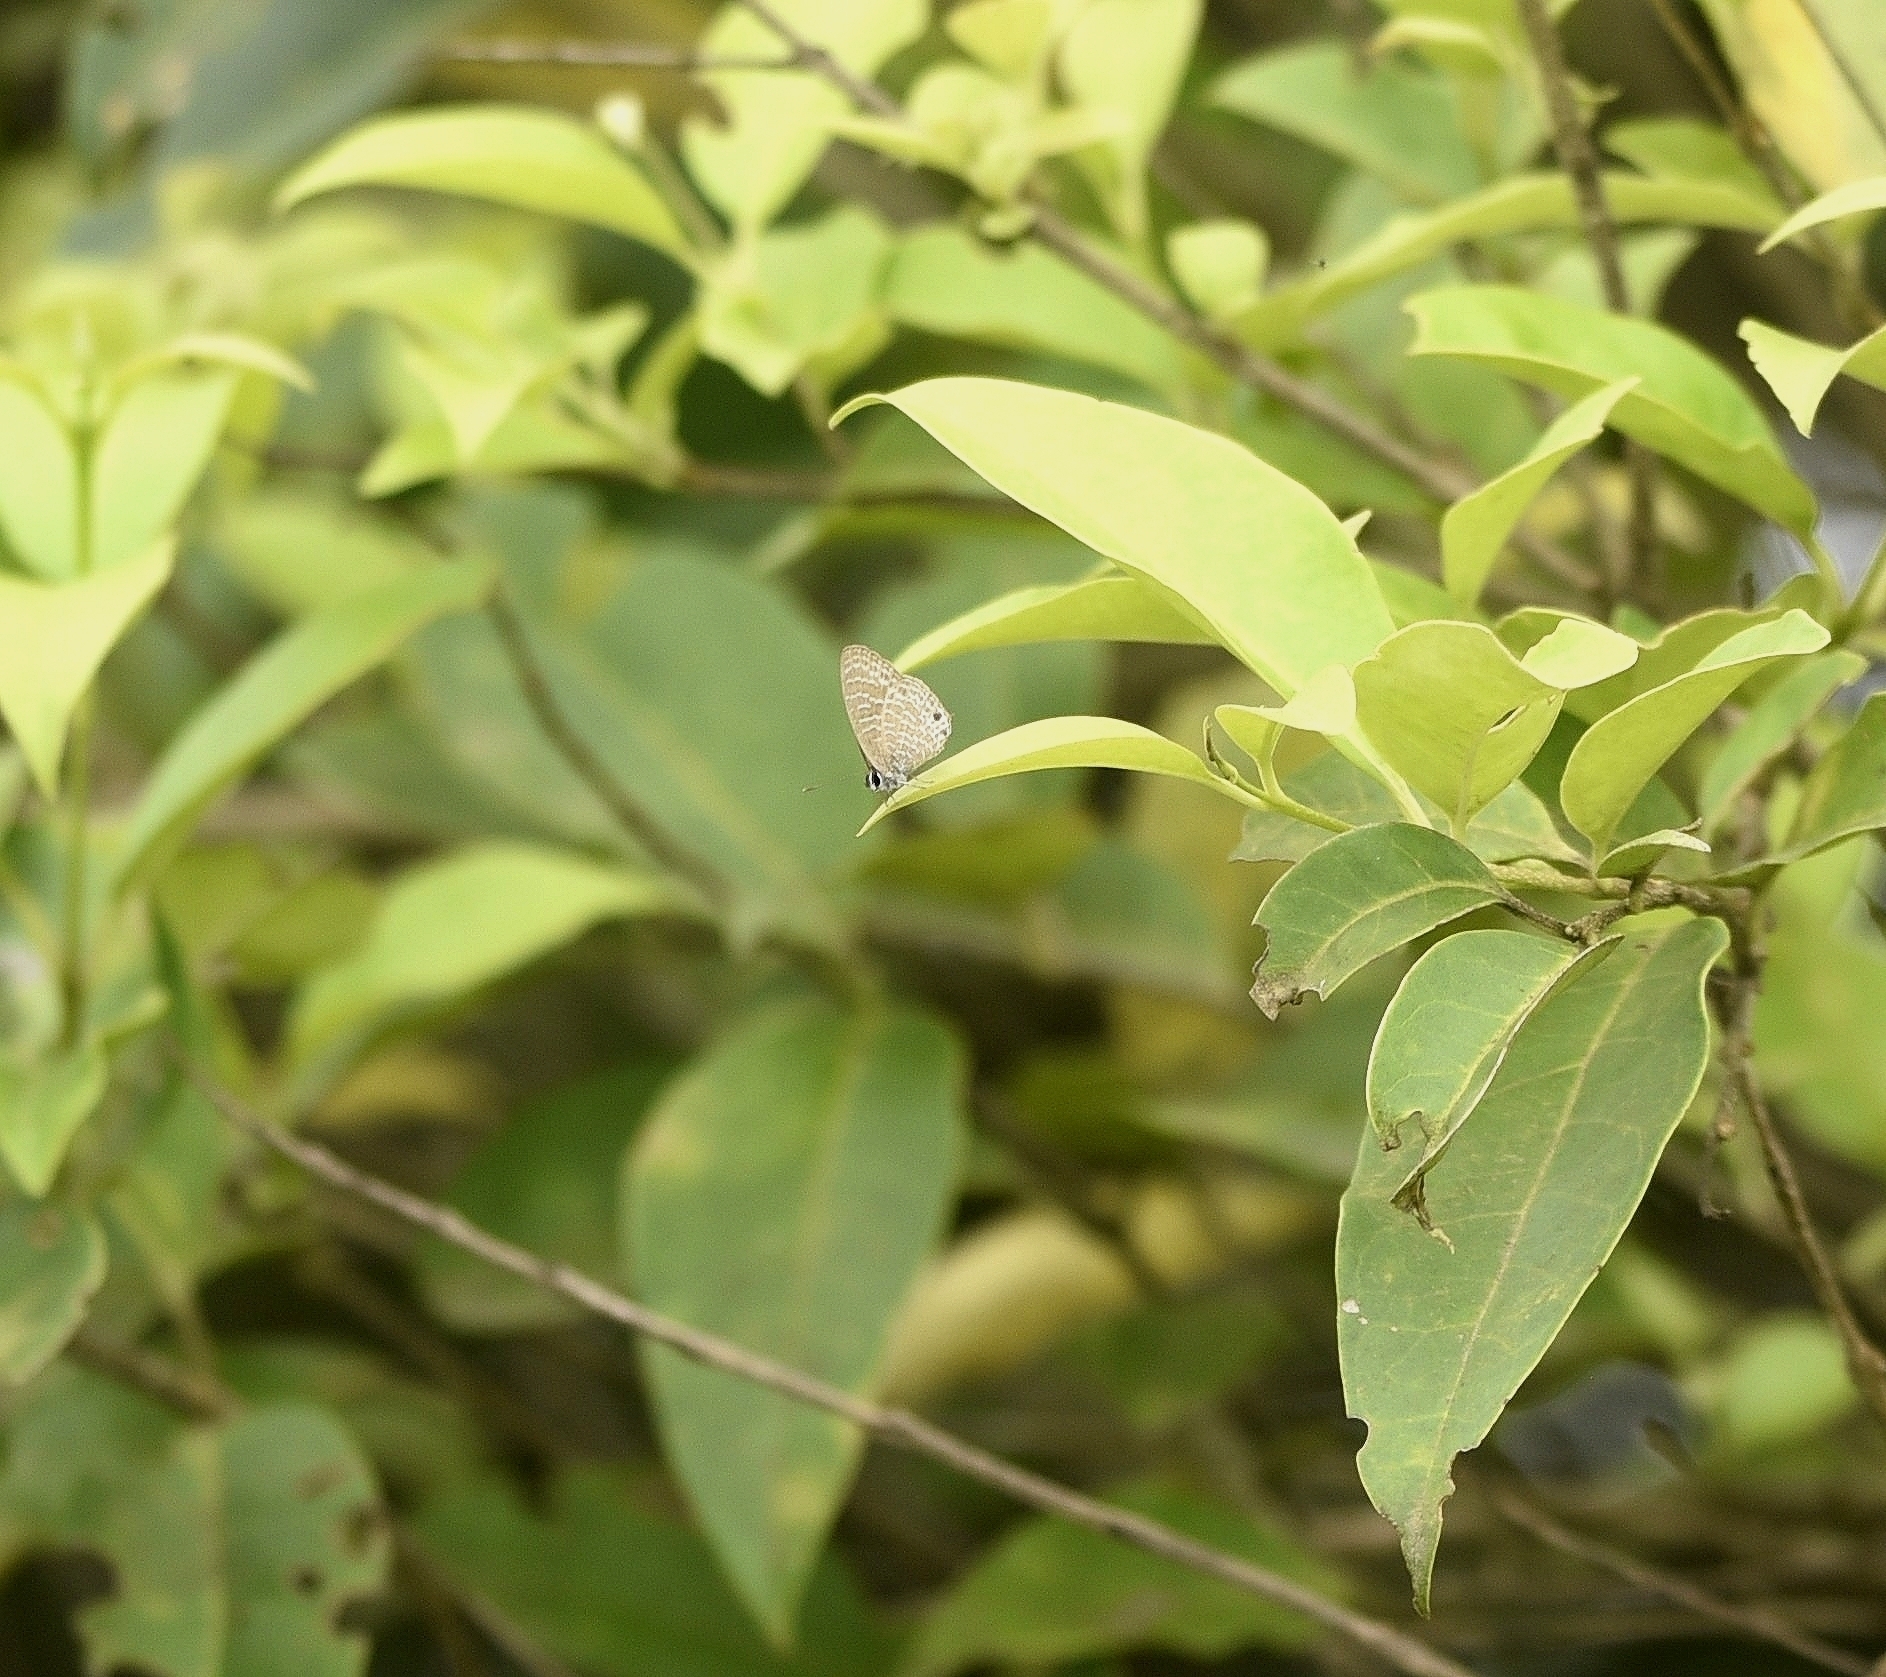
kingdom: Animalia
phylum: Arthropoda
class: Insecta
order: Lepidoptera
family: Lycaenidae
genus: Nacaduba
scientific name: Nacaduba kurava
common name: Transparent 6-line blue
